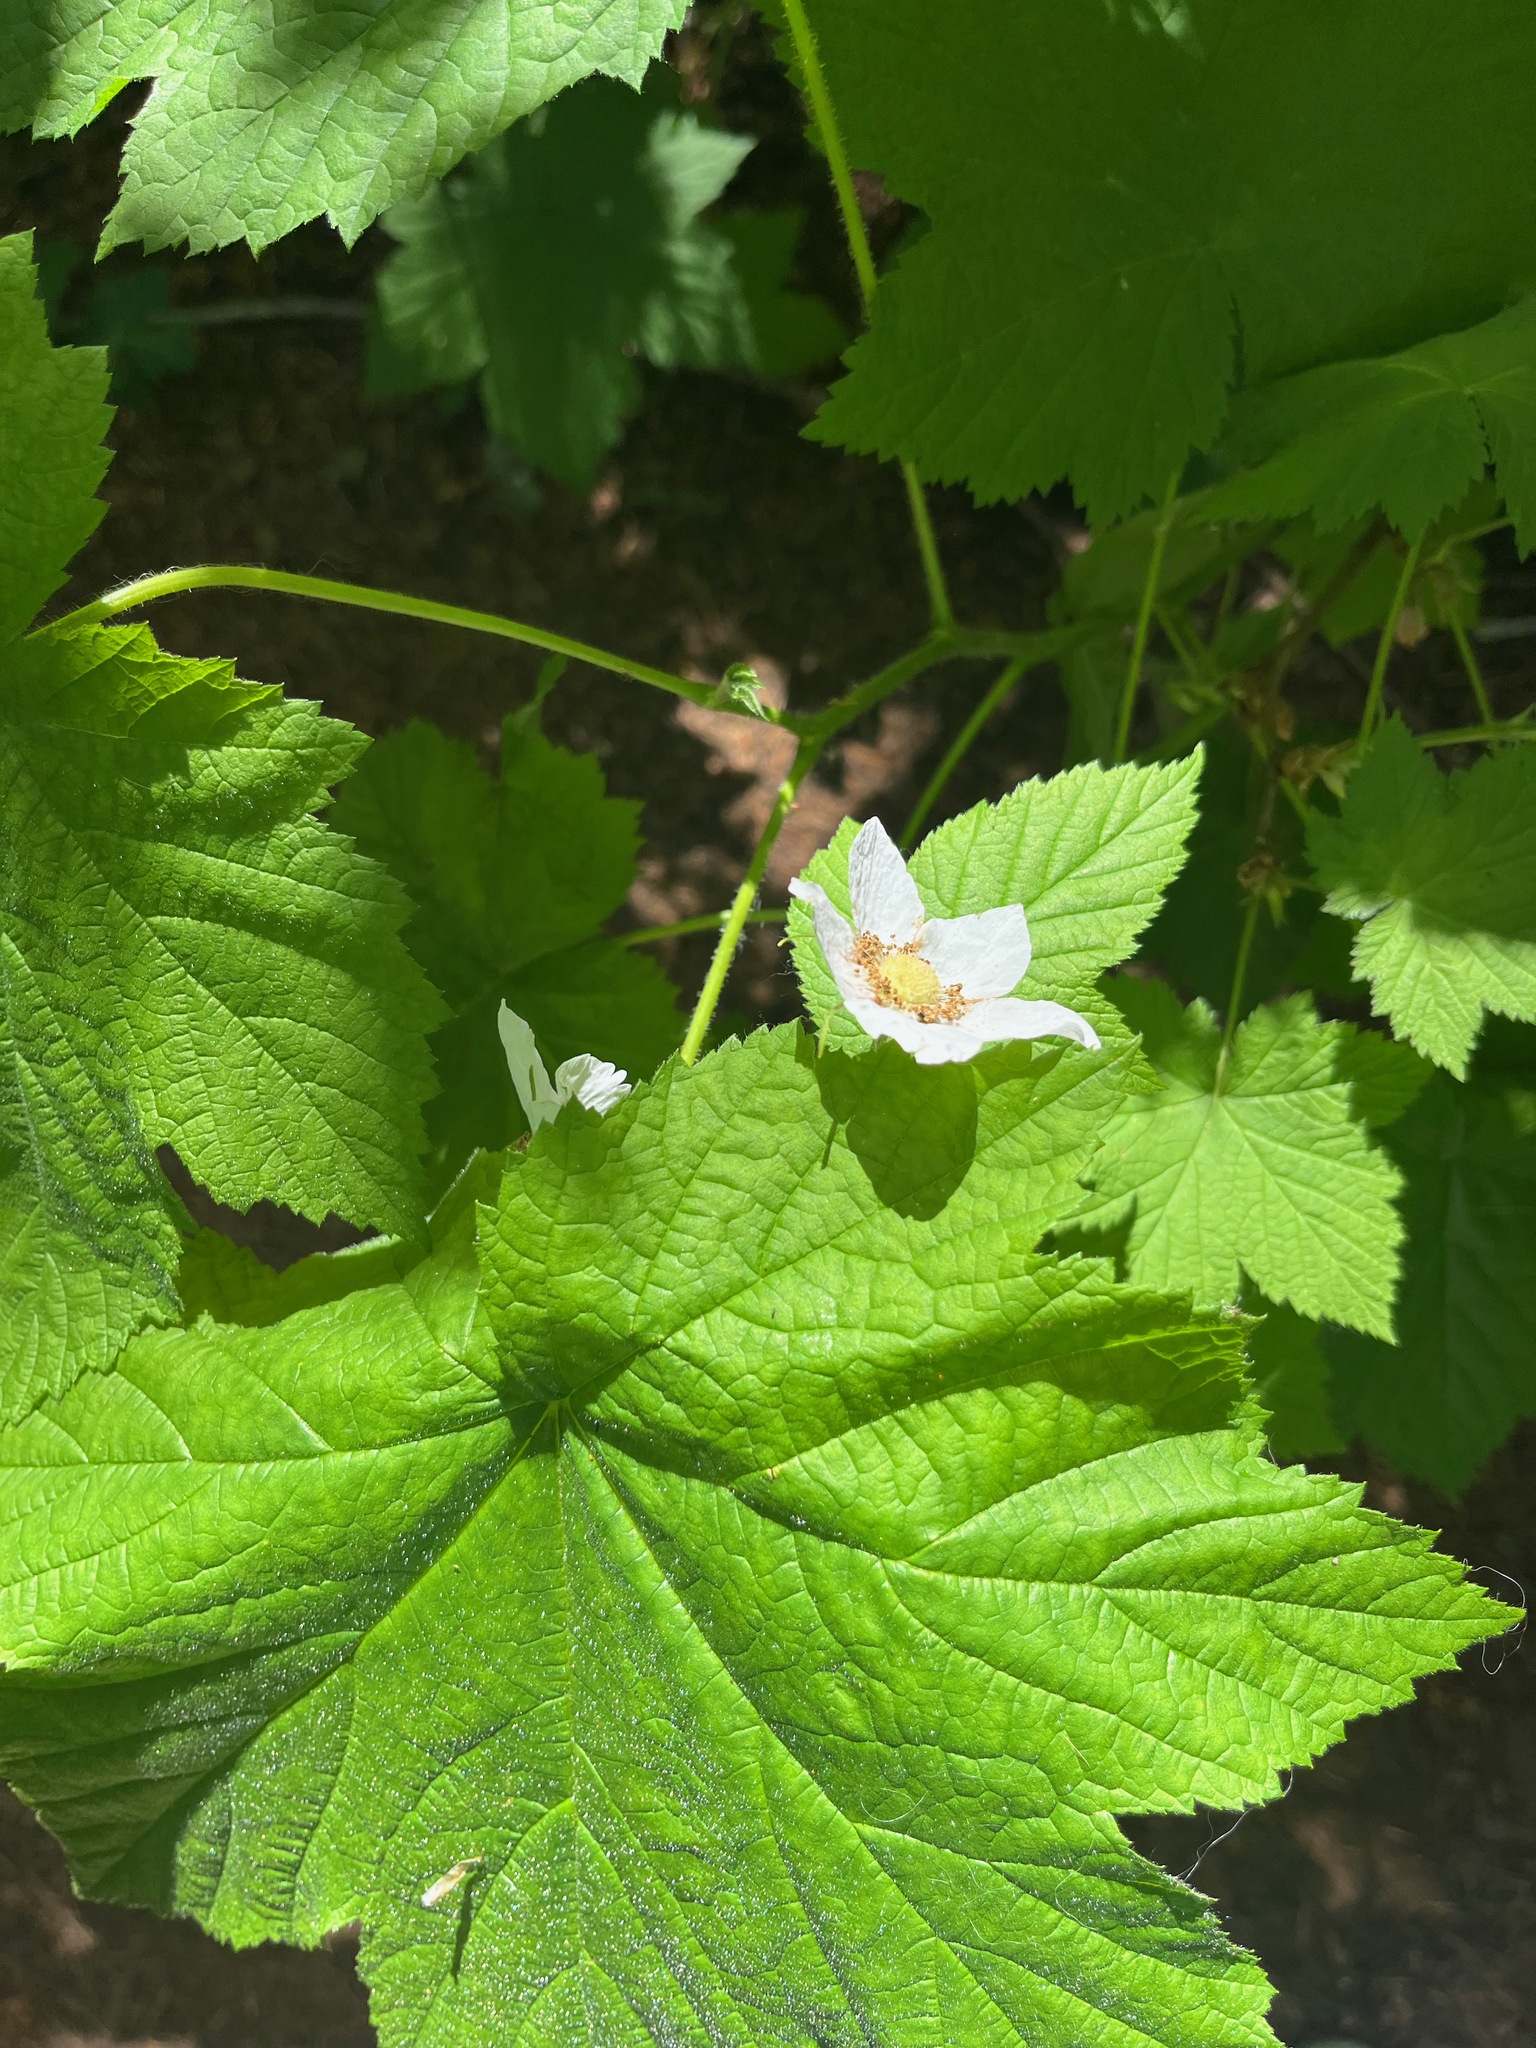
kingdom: Plantae
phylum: Tracheophyta
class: Magnoliopsida
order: Rosales
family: Rosaceae
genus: Rubus
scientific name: Rubus parviflorus
